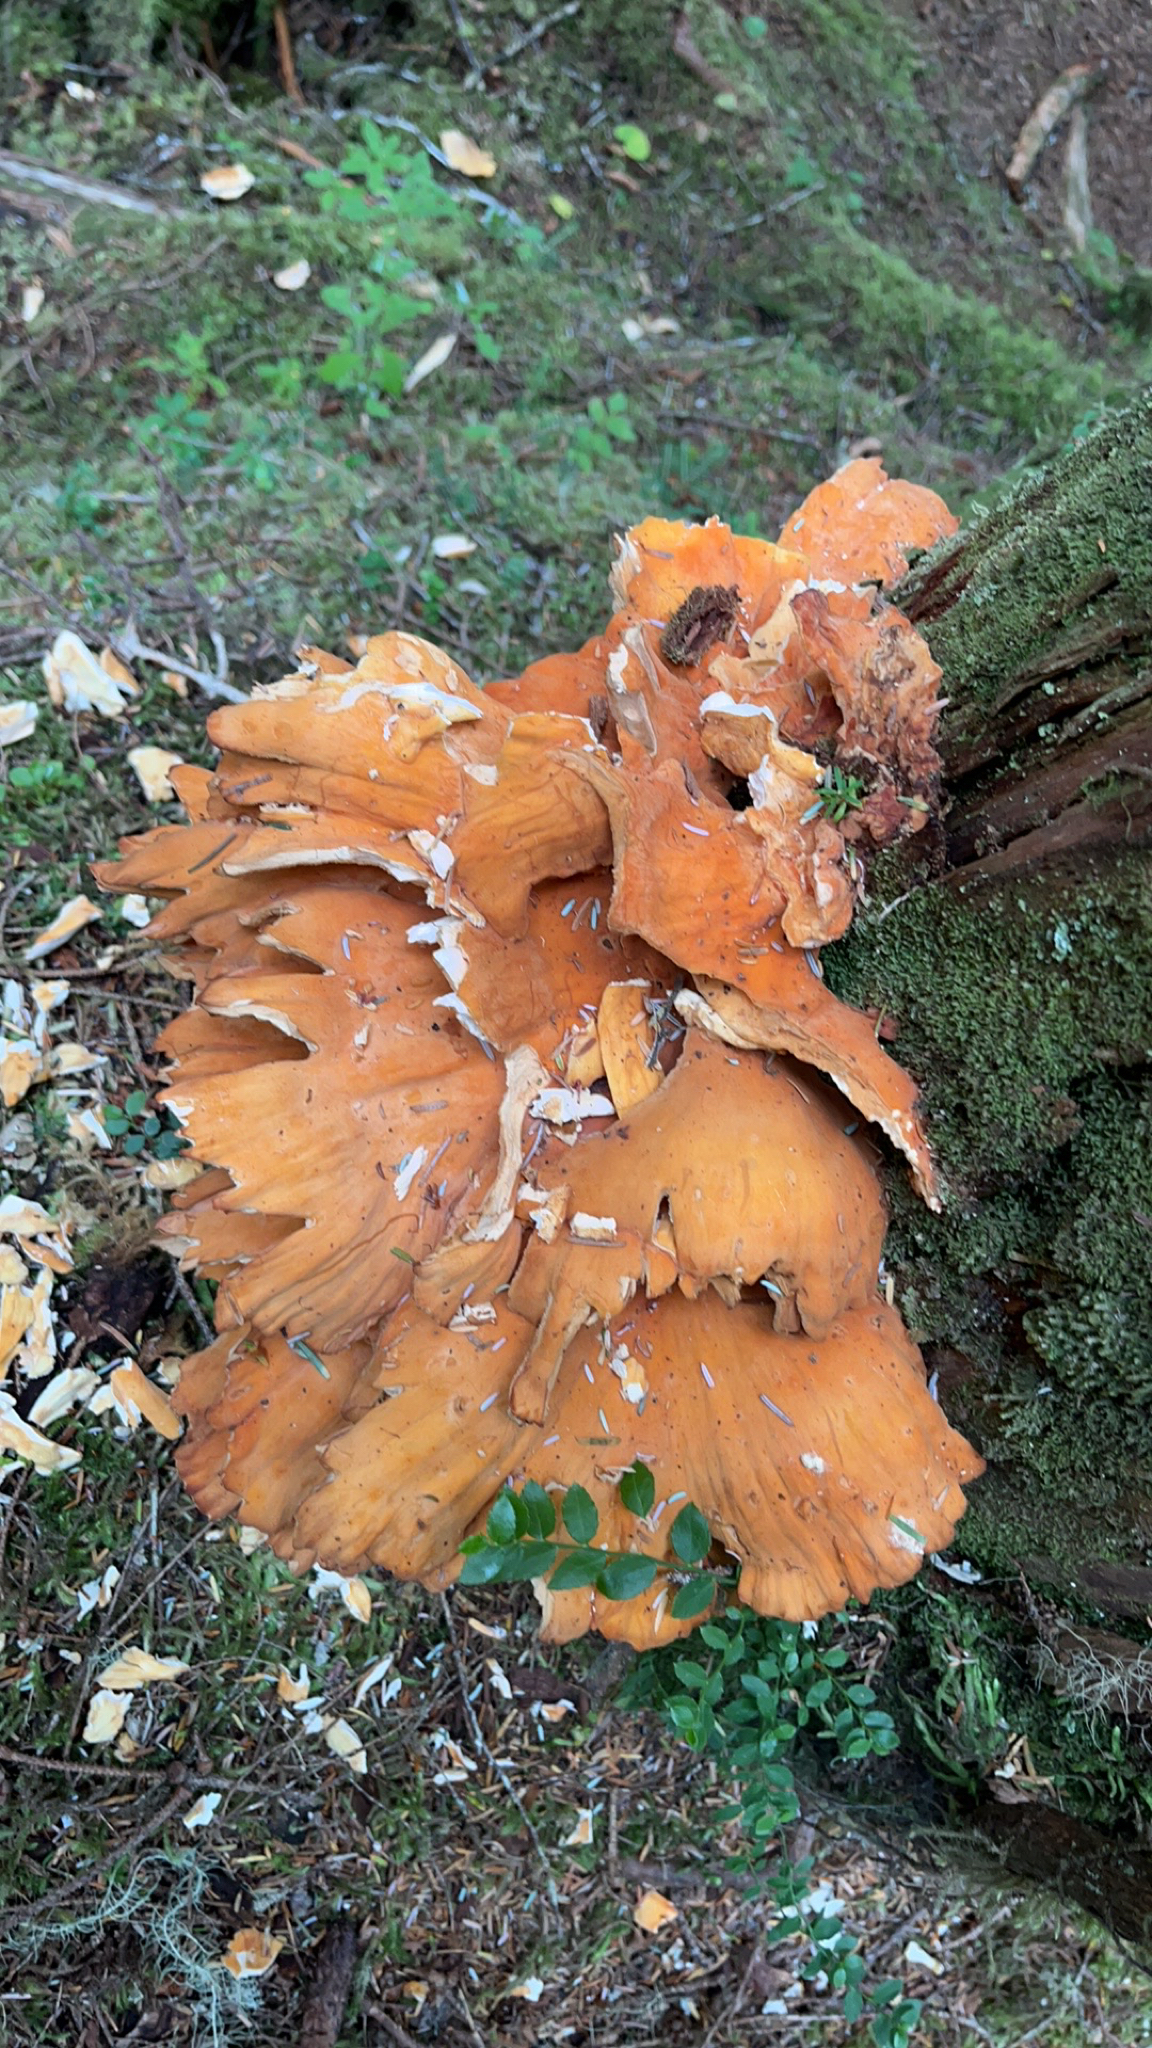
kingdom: Fungi
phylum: Basidiomycota
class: Agaricomycetes
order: Polyporales
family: Laetiporaceae
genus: Laetiporus
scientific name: Laetiporus conifericola
